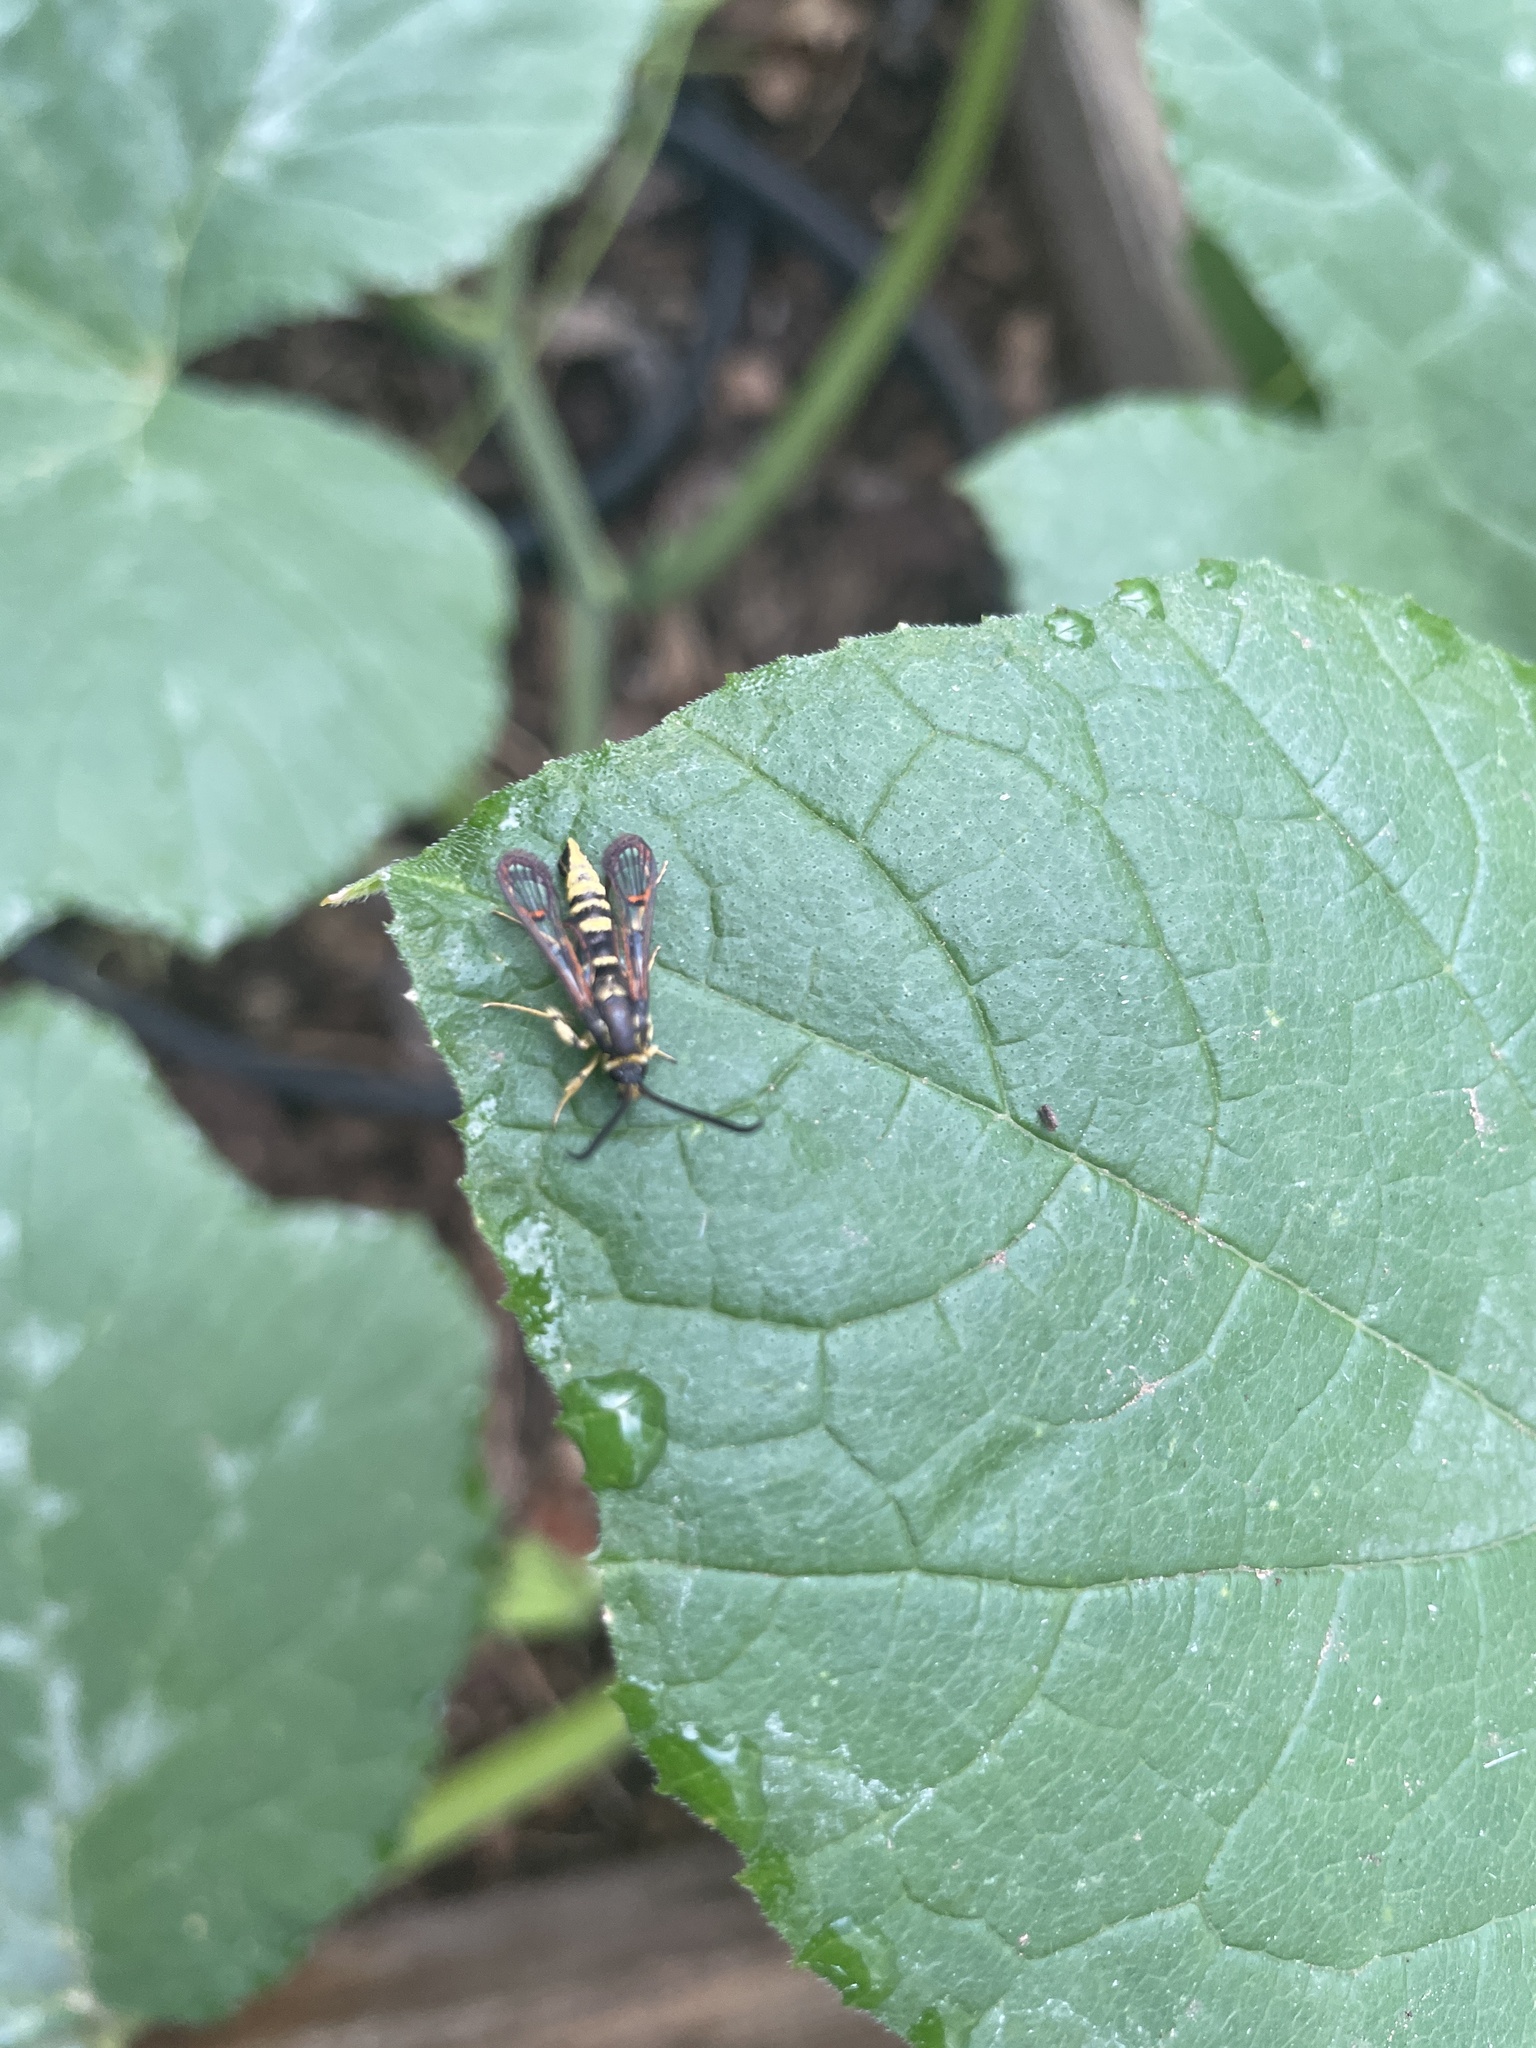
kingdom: Animalia
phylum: Arthropoda
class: Insecta
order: Lepidoptera
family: Sesiidae
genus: Carmenta
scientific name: Carmenta giliae
